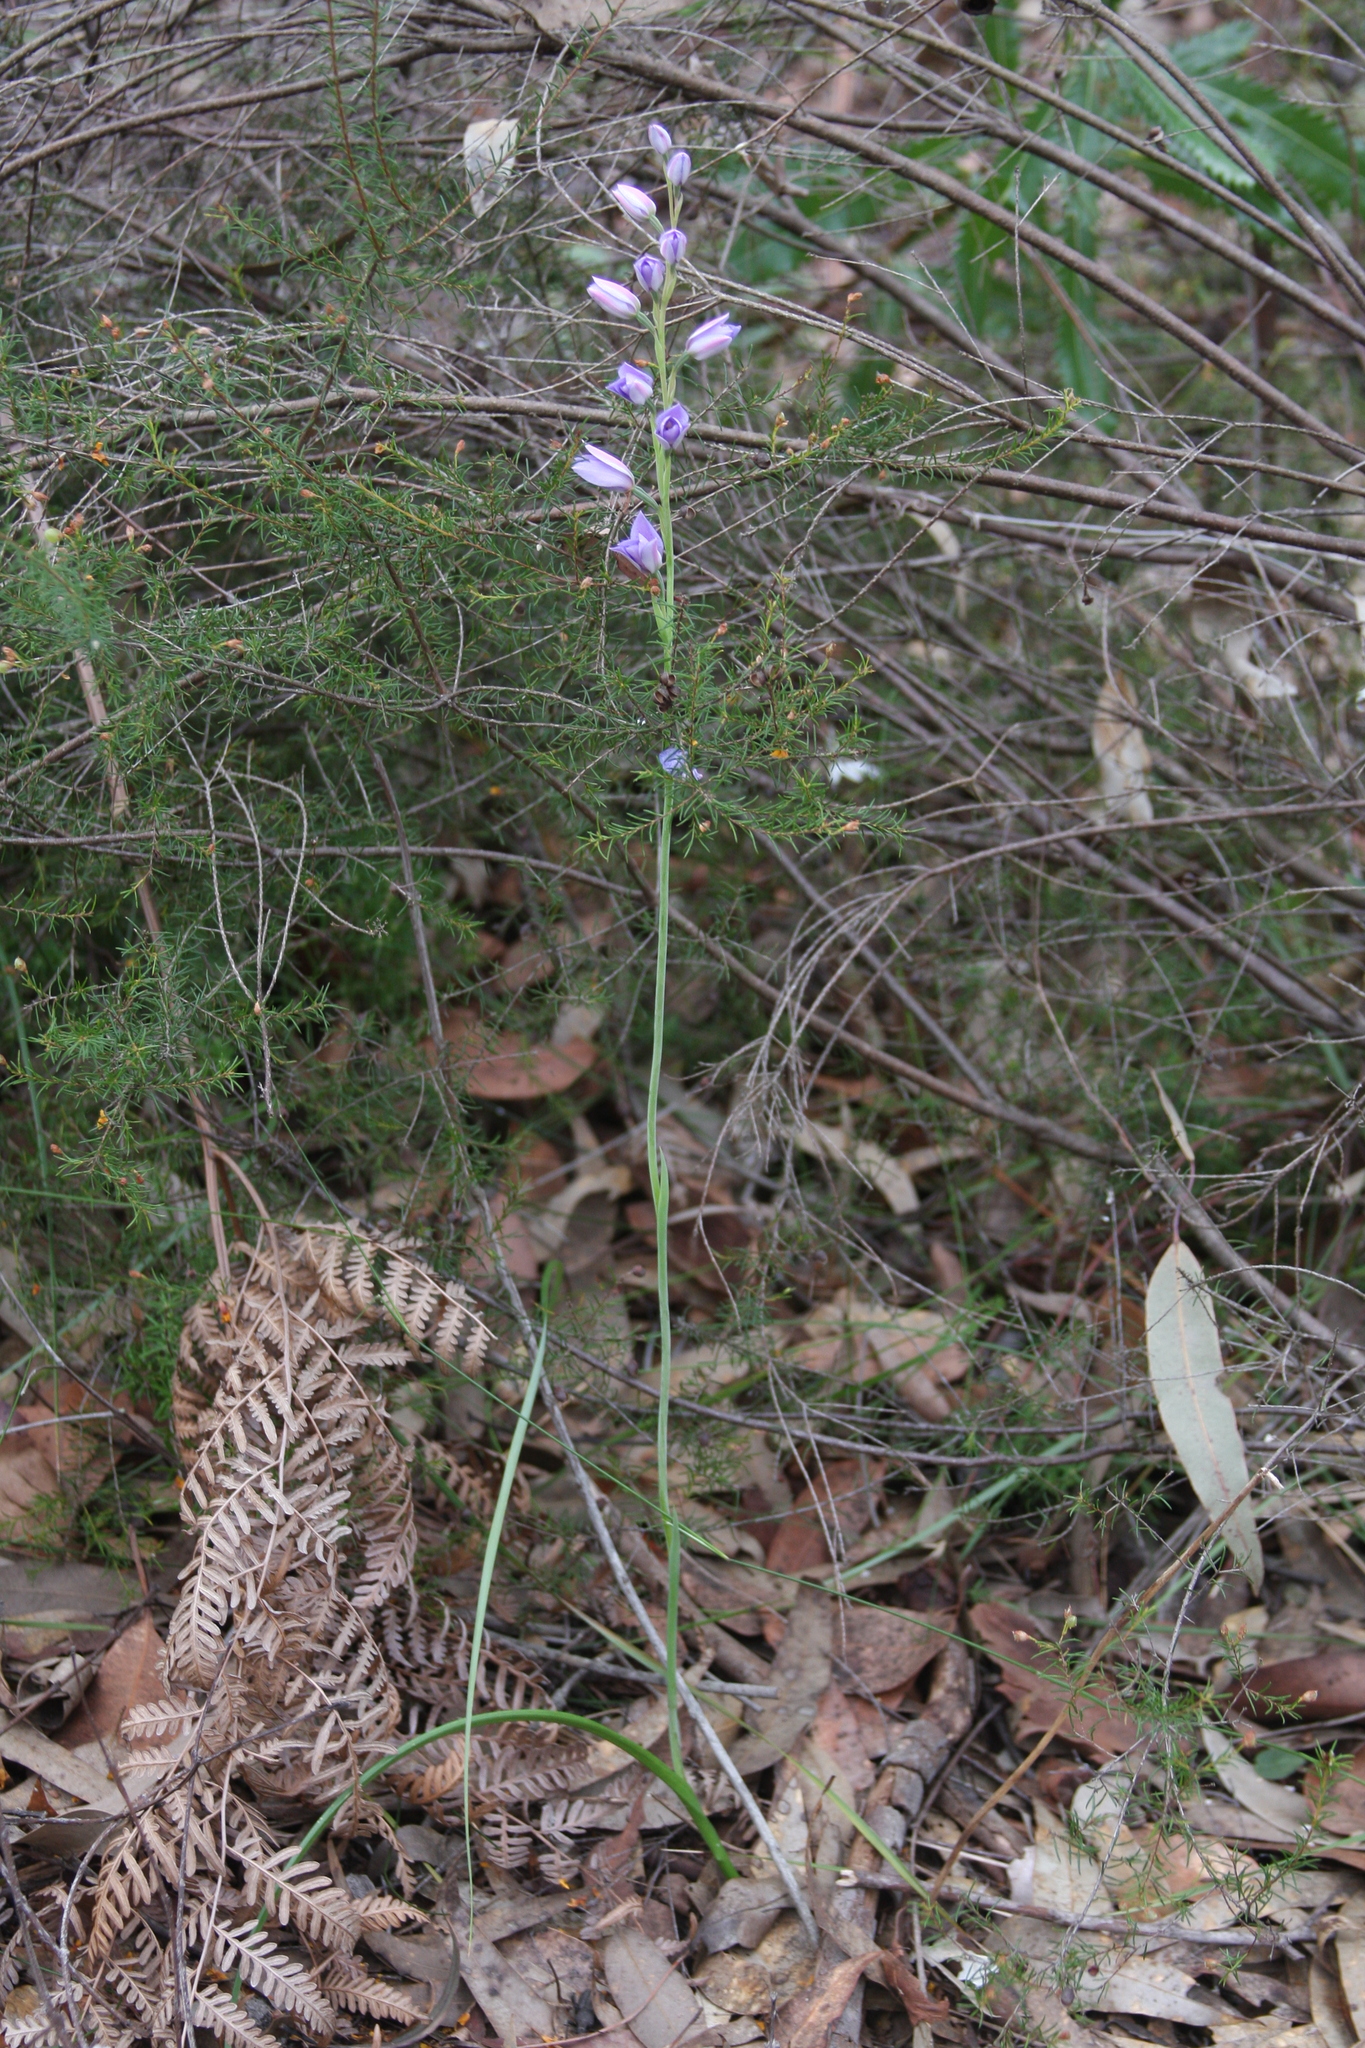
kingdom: Plantae
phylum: Tracheophyta
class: Liliopsida
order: Asparagales
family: Orchidaceae
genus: Thelymitra
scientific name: Thelymitra ixioides
